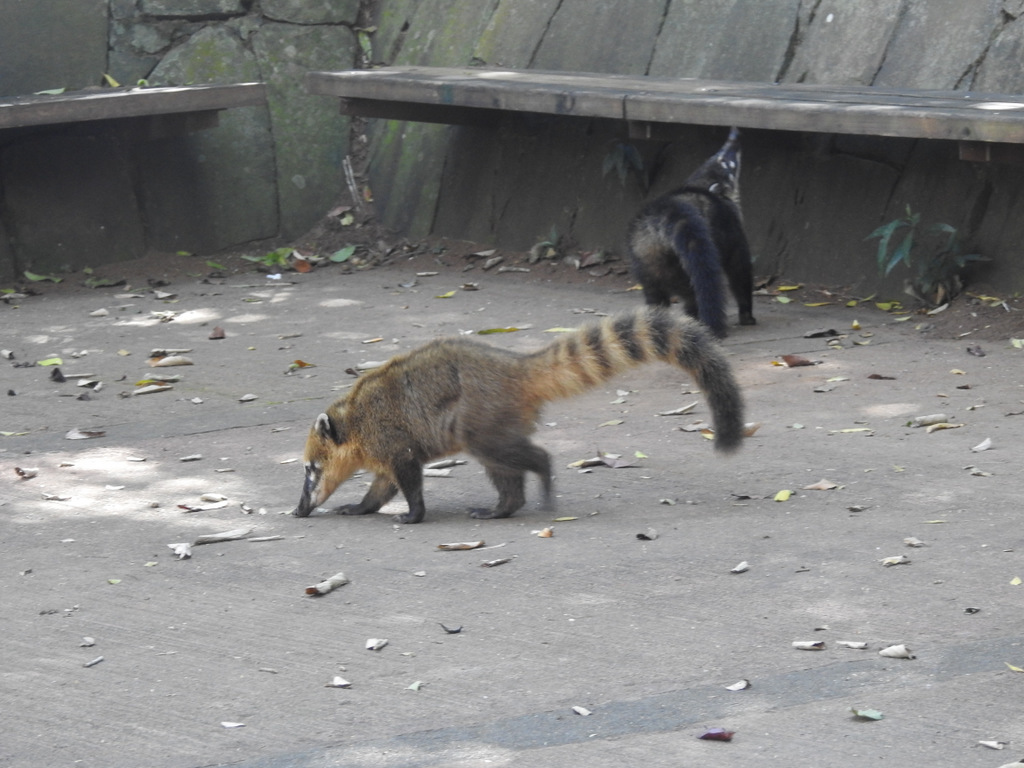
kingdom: Animalia
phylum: Chordata
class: Mammalia
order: Carnivora
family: Procyonidae
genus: Nasua
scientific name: Nasua nasua
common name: South american coati
